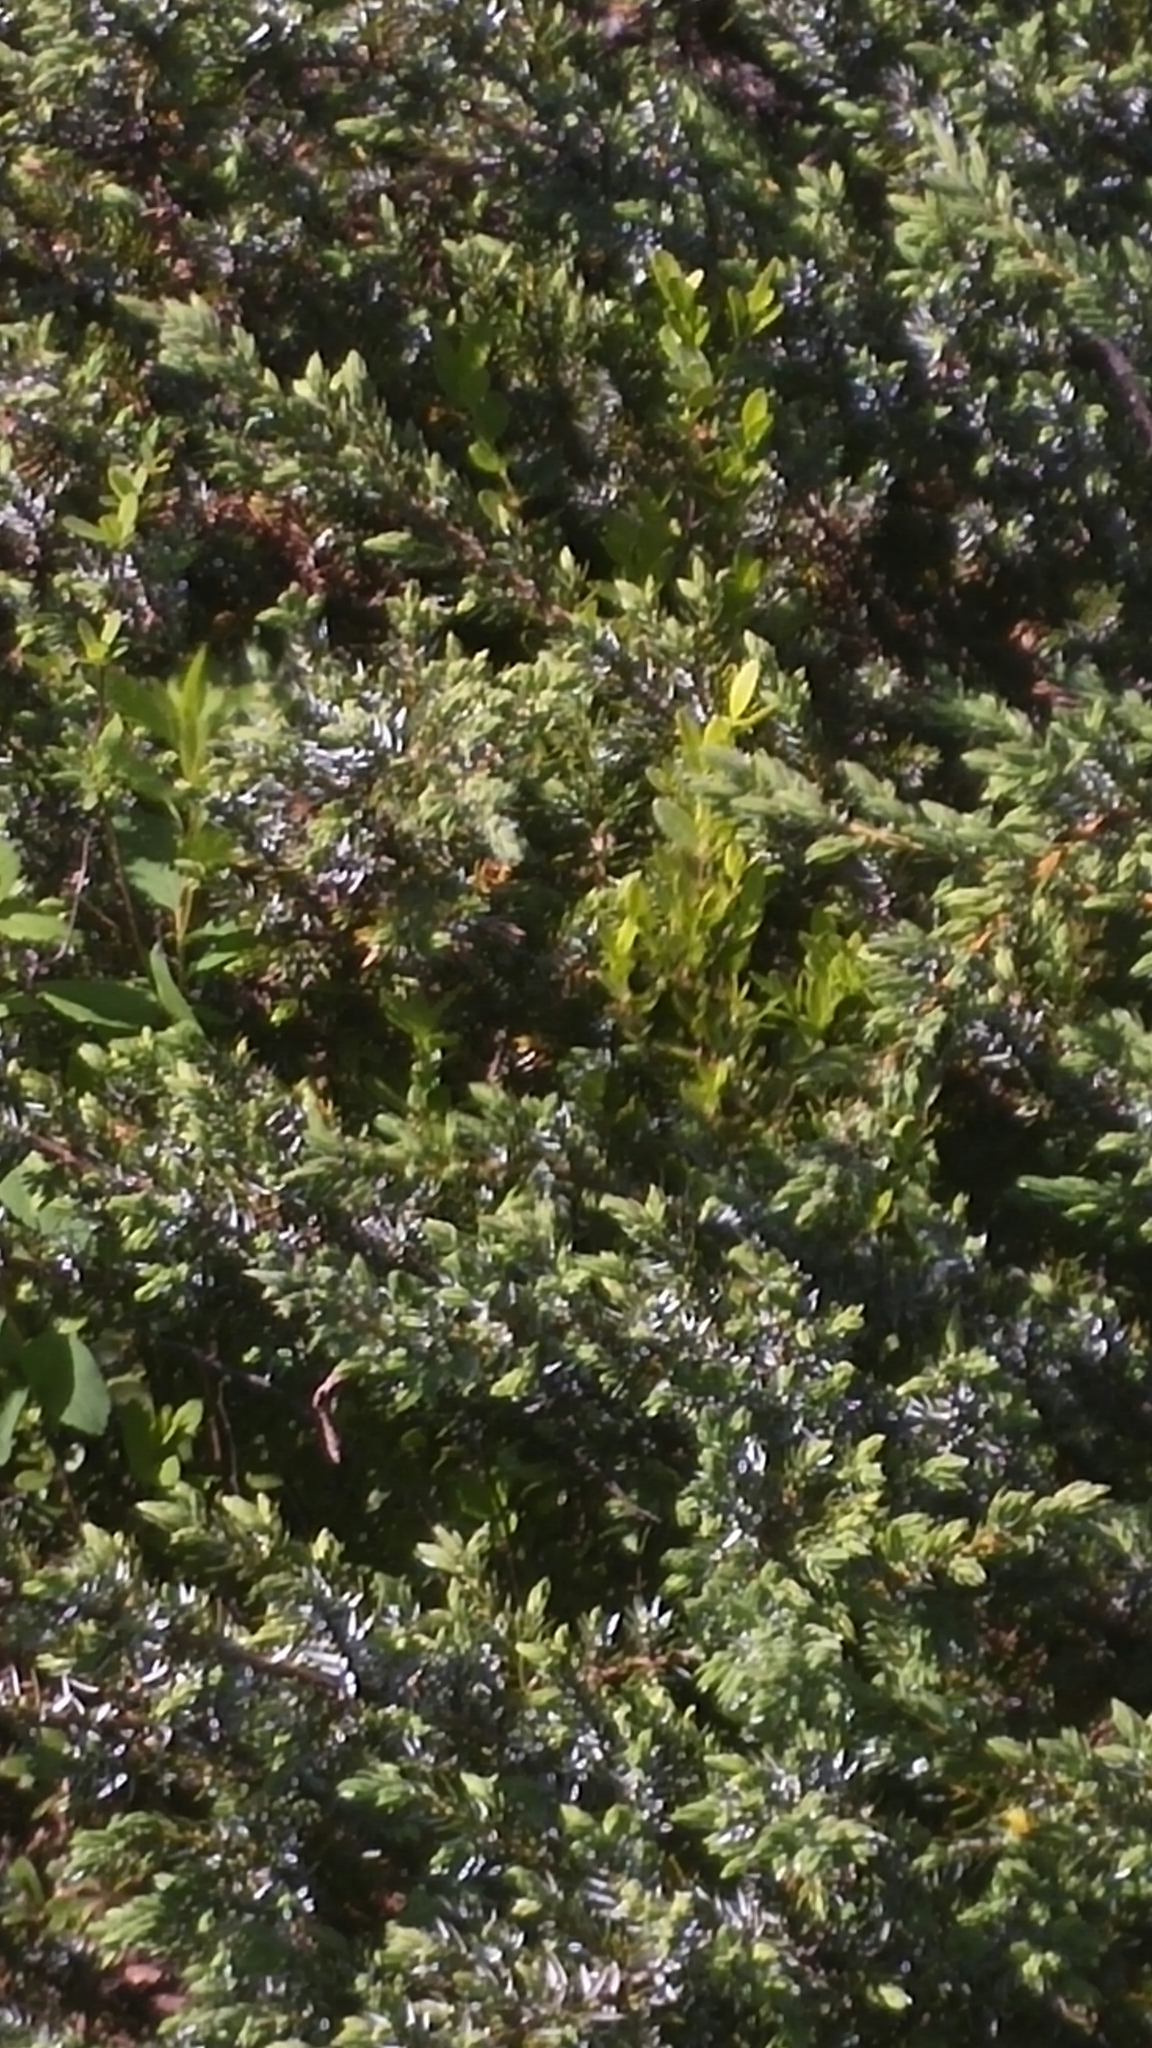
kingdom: Plantae
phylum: Tracheophyta
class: Pinopsida
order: Pinales
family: Cupressaceae
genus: Juniperus
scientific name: Juniperus communis
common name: Common juniper
